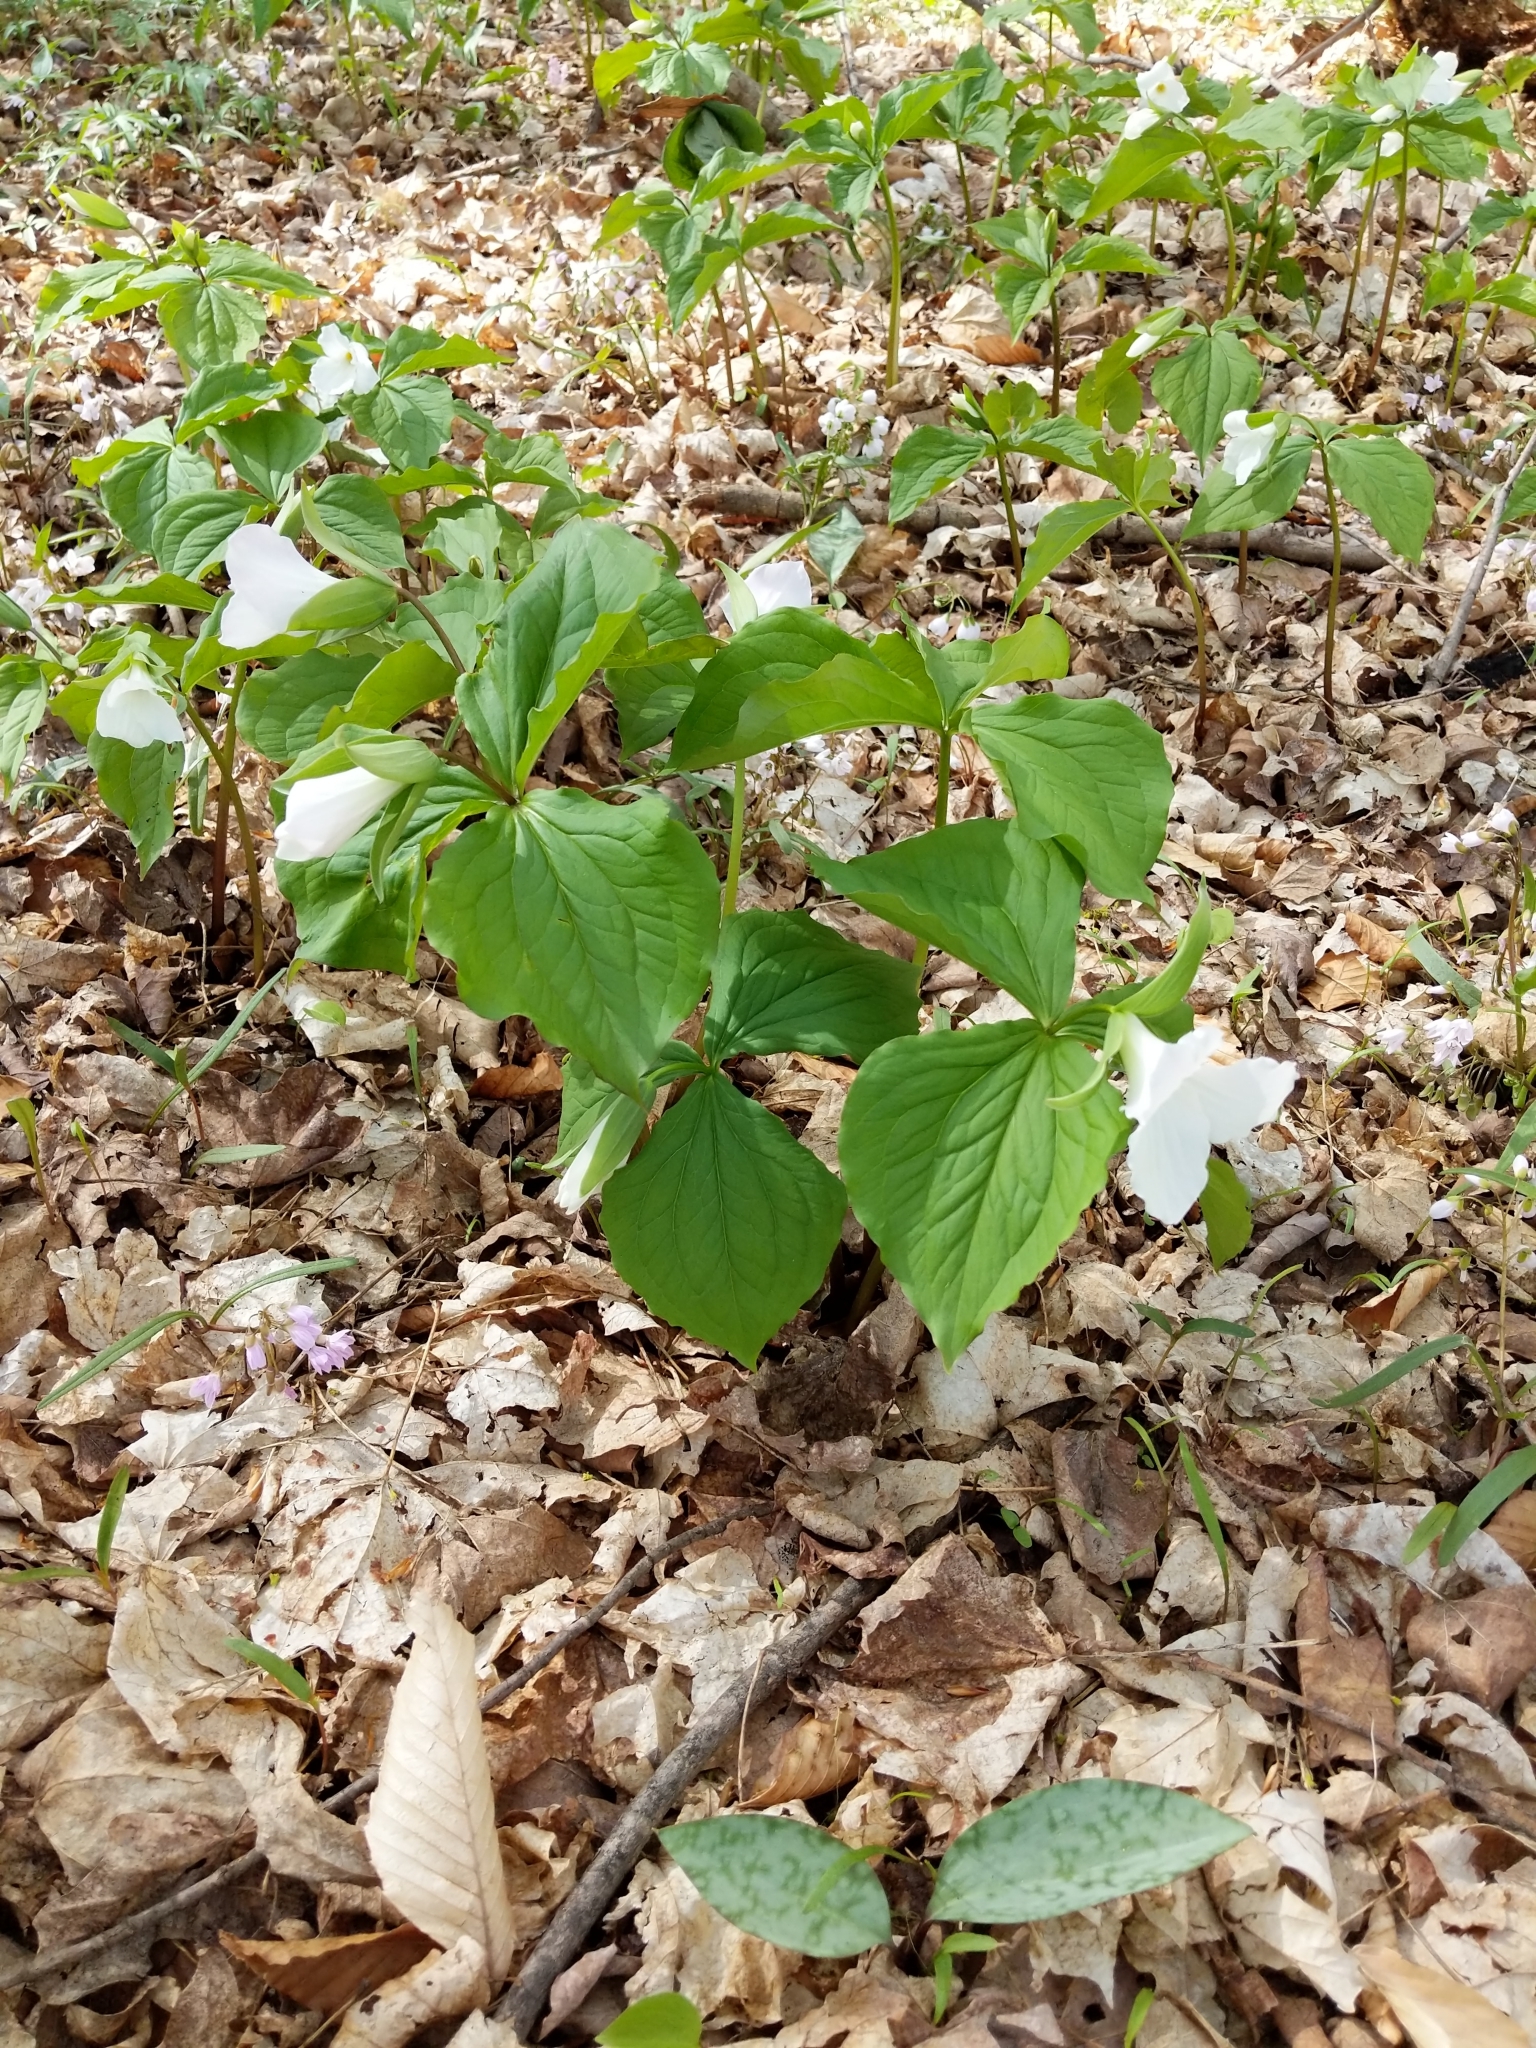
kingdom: Plantae
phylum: Tracheophyta
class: Liliopsida
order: Liliales
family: Melanthiaceae
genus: Trillium
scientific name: Trillium grandiflorum
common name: Great white trillium
